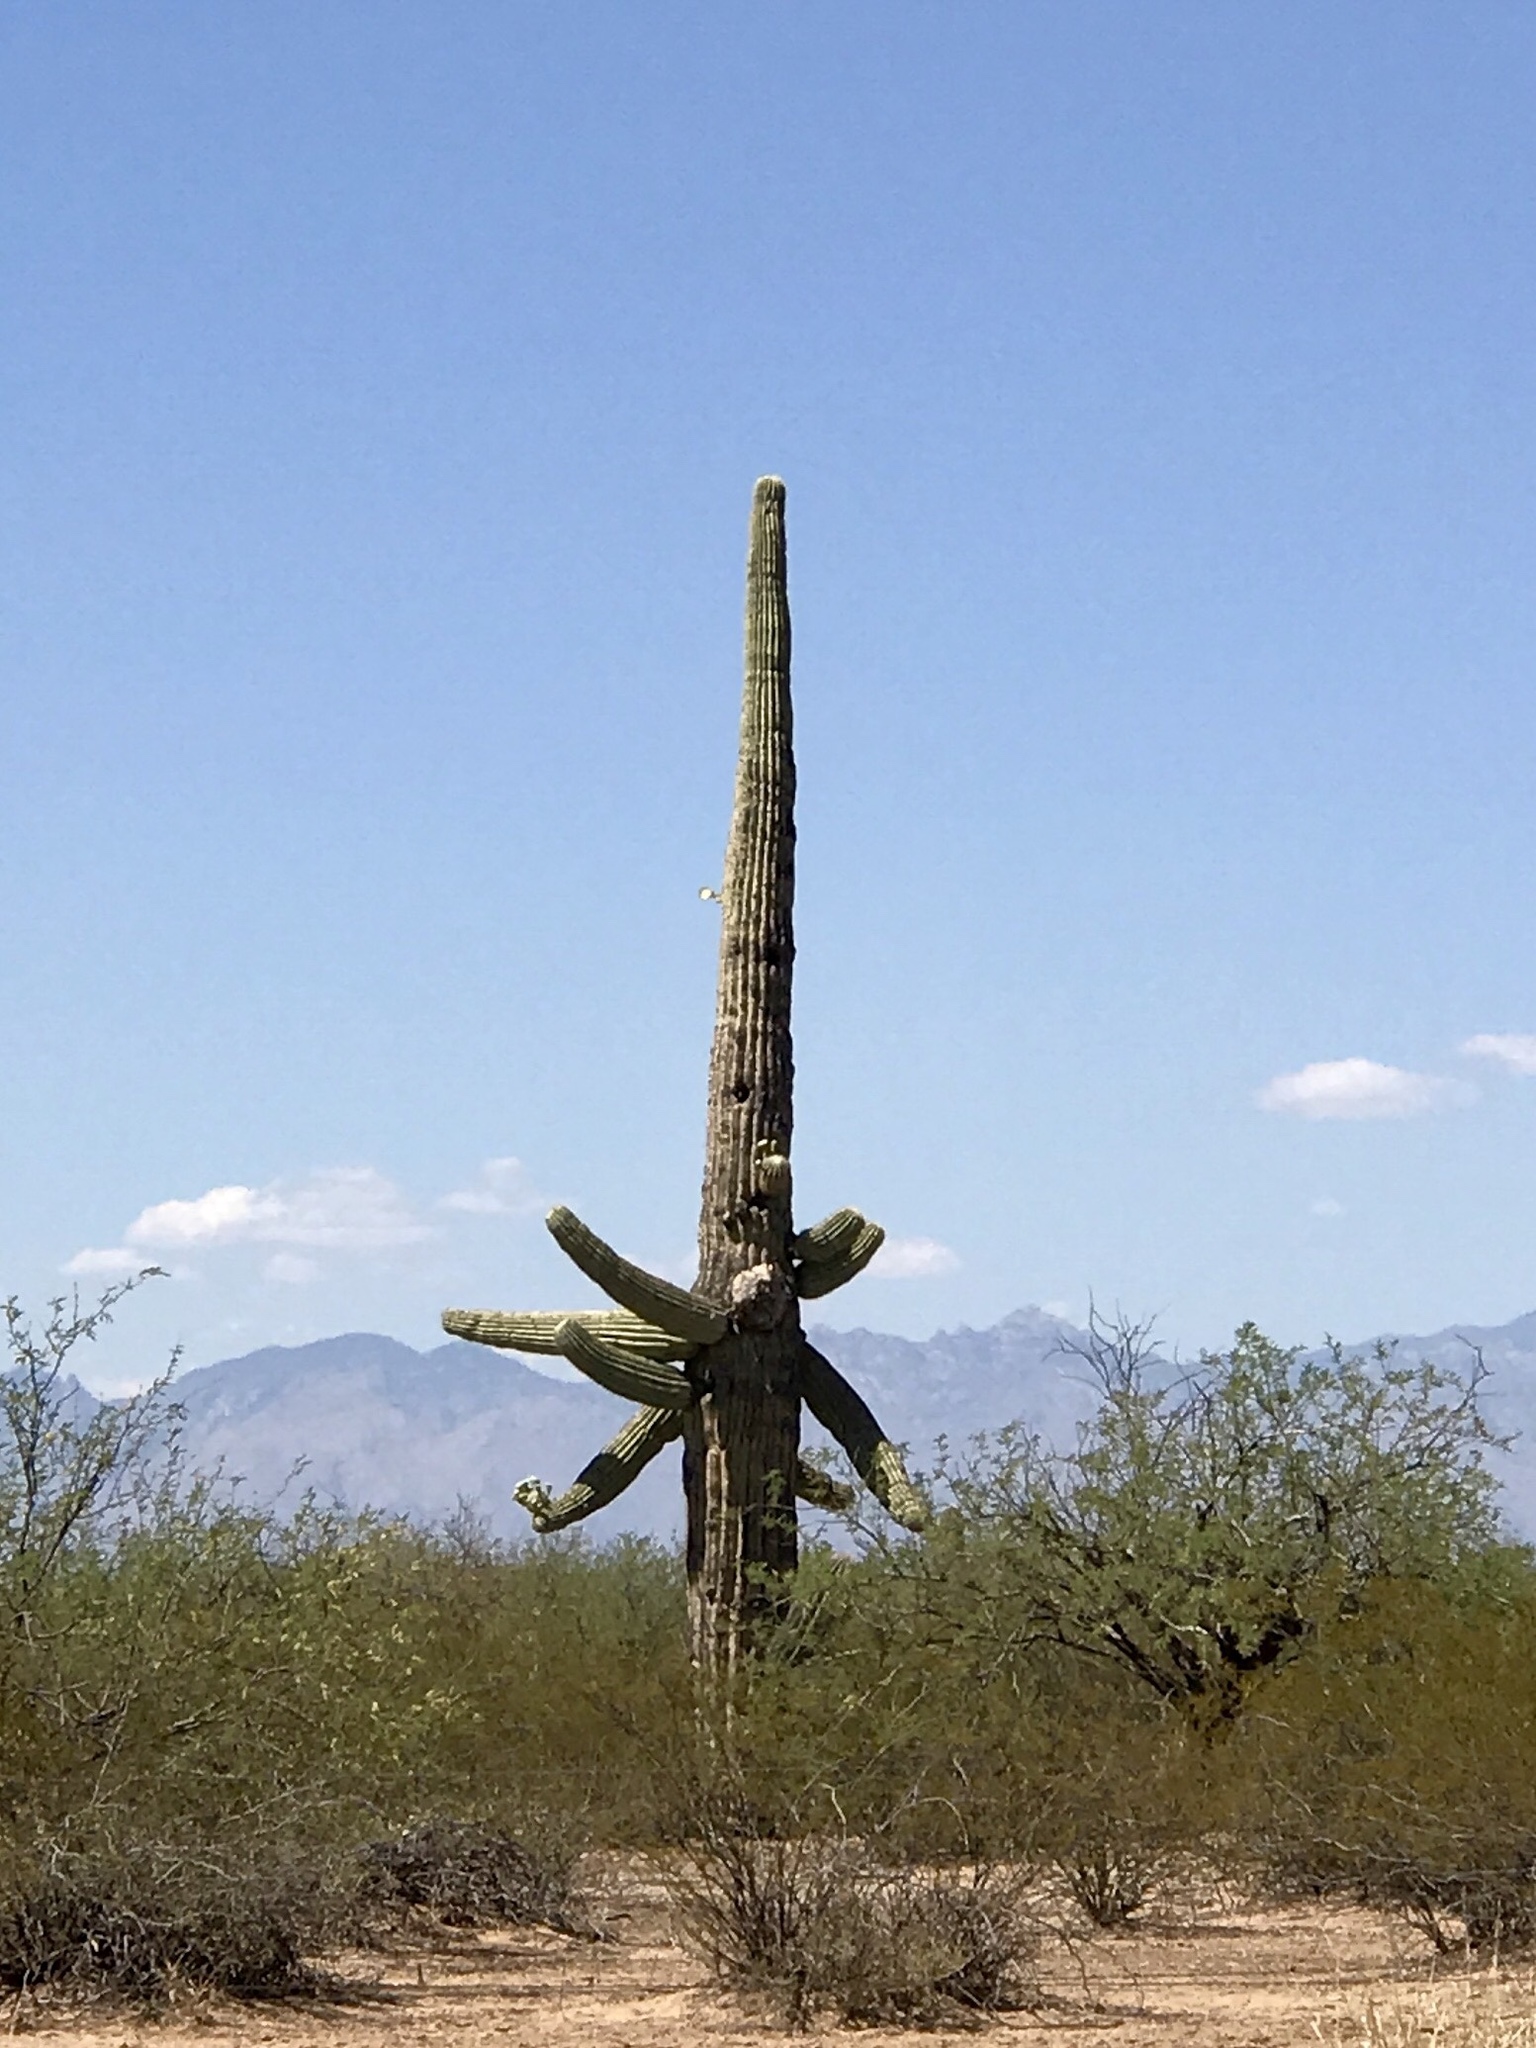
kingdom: Plantae
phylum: Tracheophyta
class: Magnoliopsida
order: Caryophyllales
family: Cactaceae
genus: Carnegiea
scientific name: Carnegiea gigantea
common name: Saguaro
